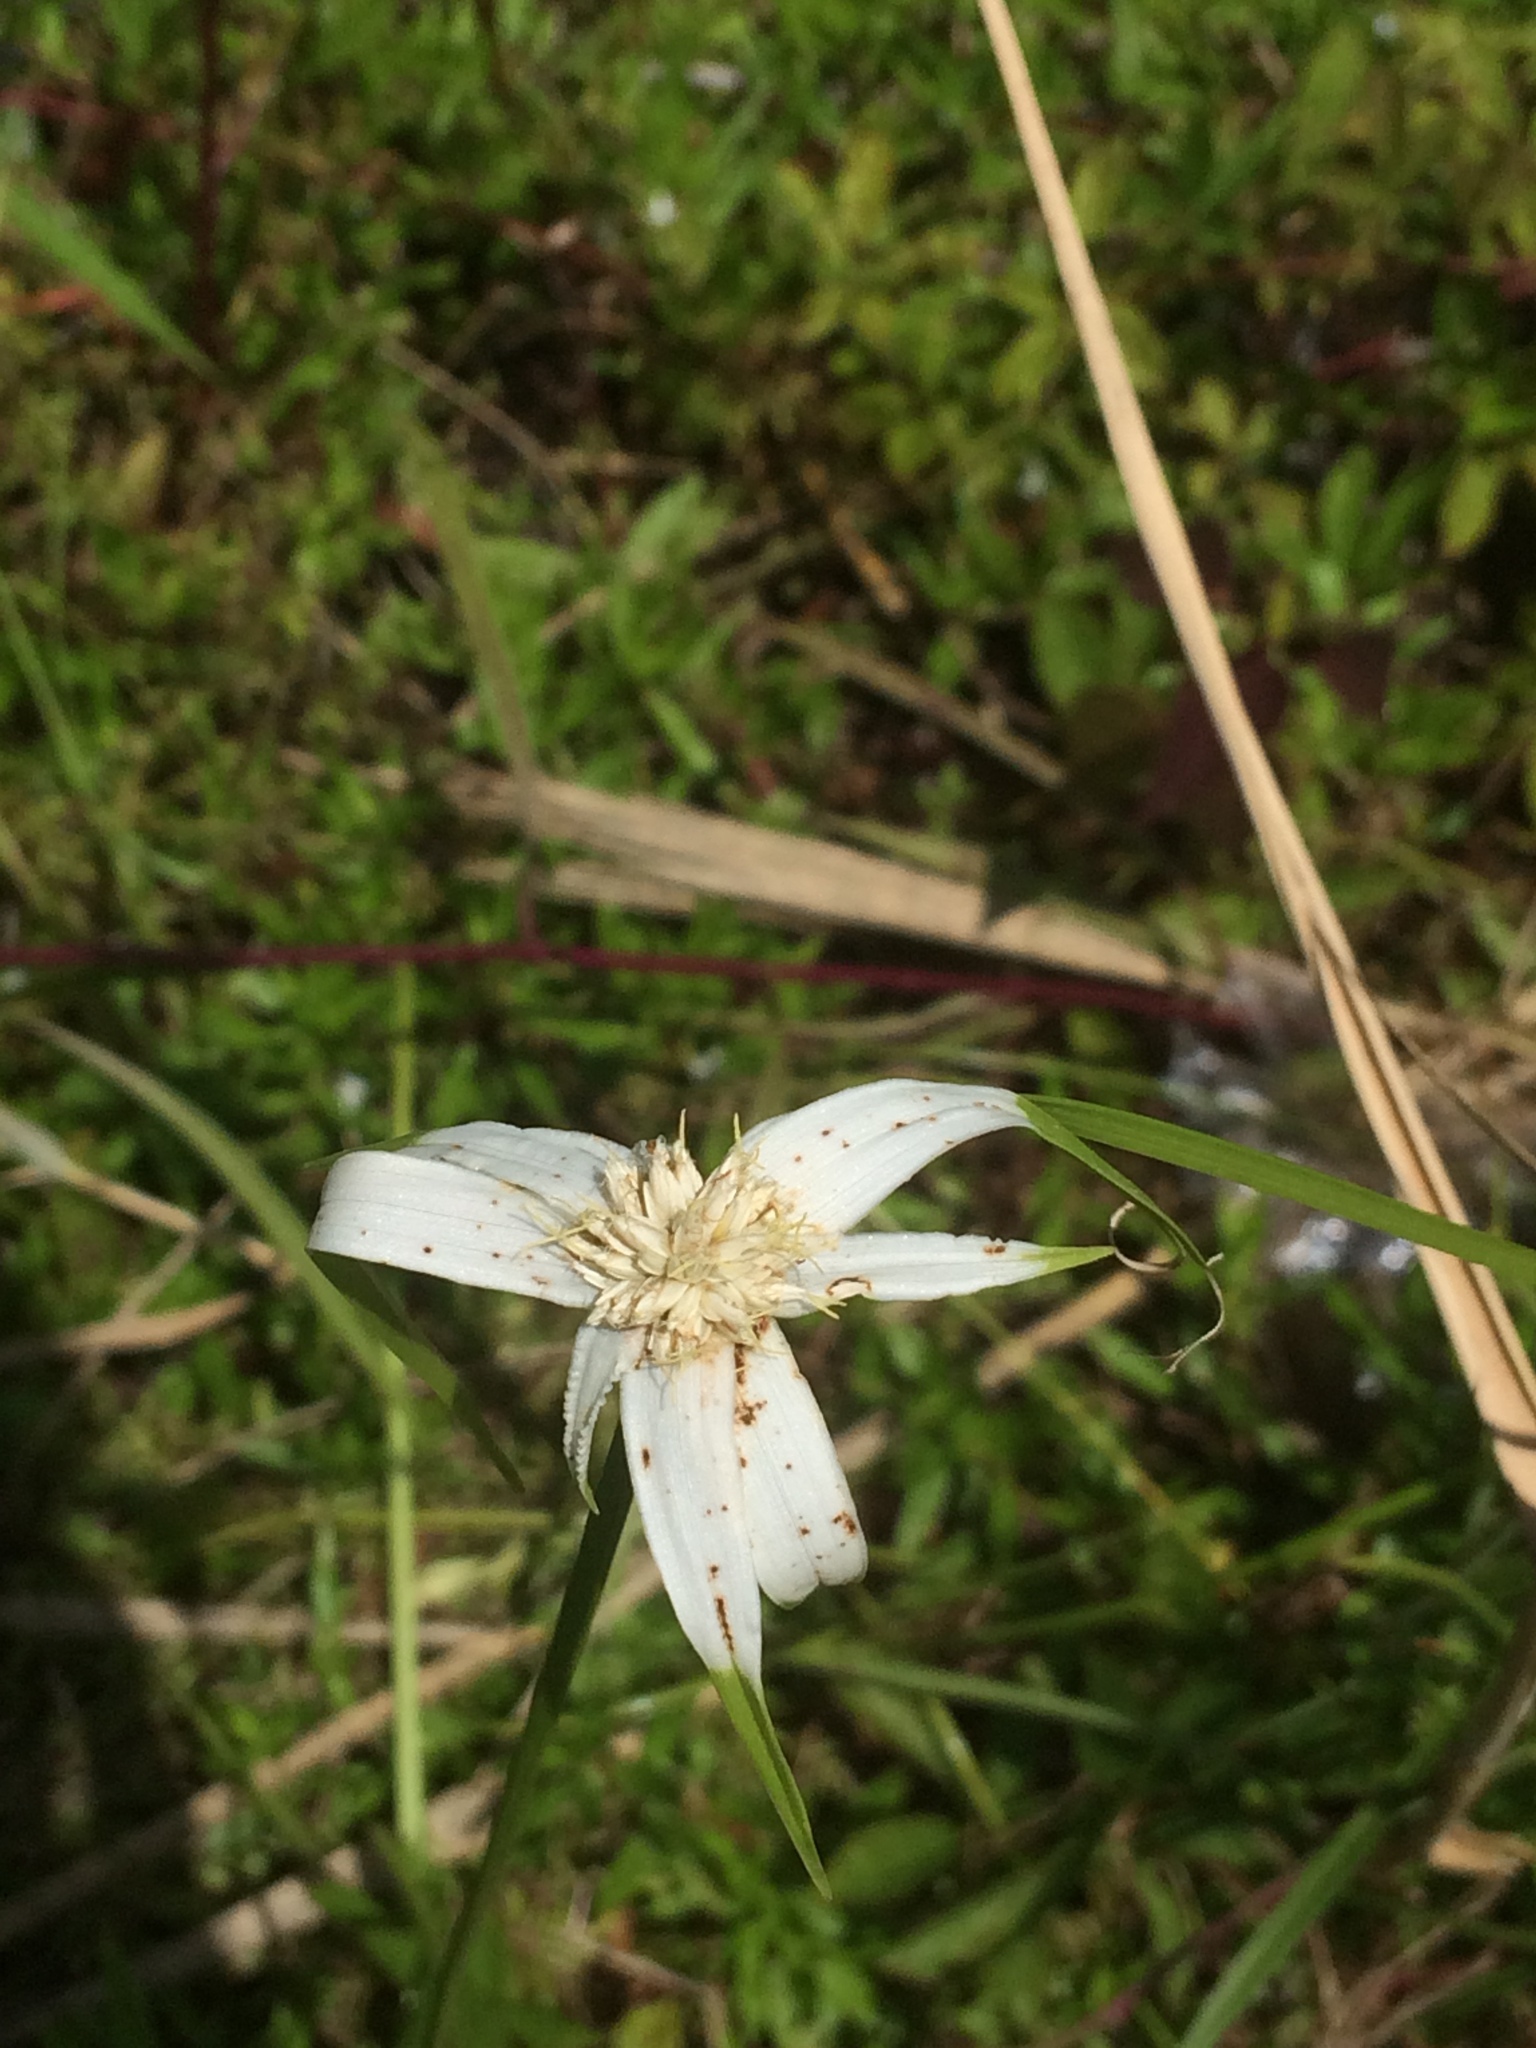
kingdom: Plantae
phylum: Tracheophyta
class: Liliopsida
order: Poales
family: Cyperaceae
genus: Rhynchospora
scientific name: Rhynchospora colorata
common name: Star sedge
